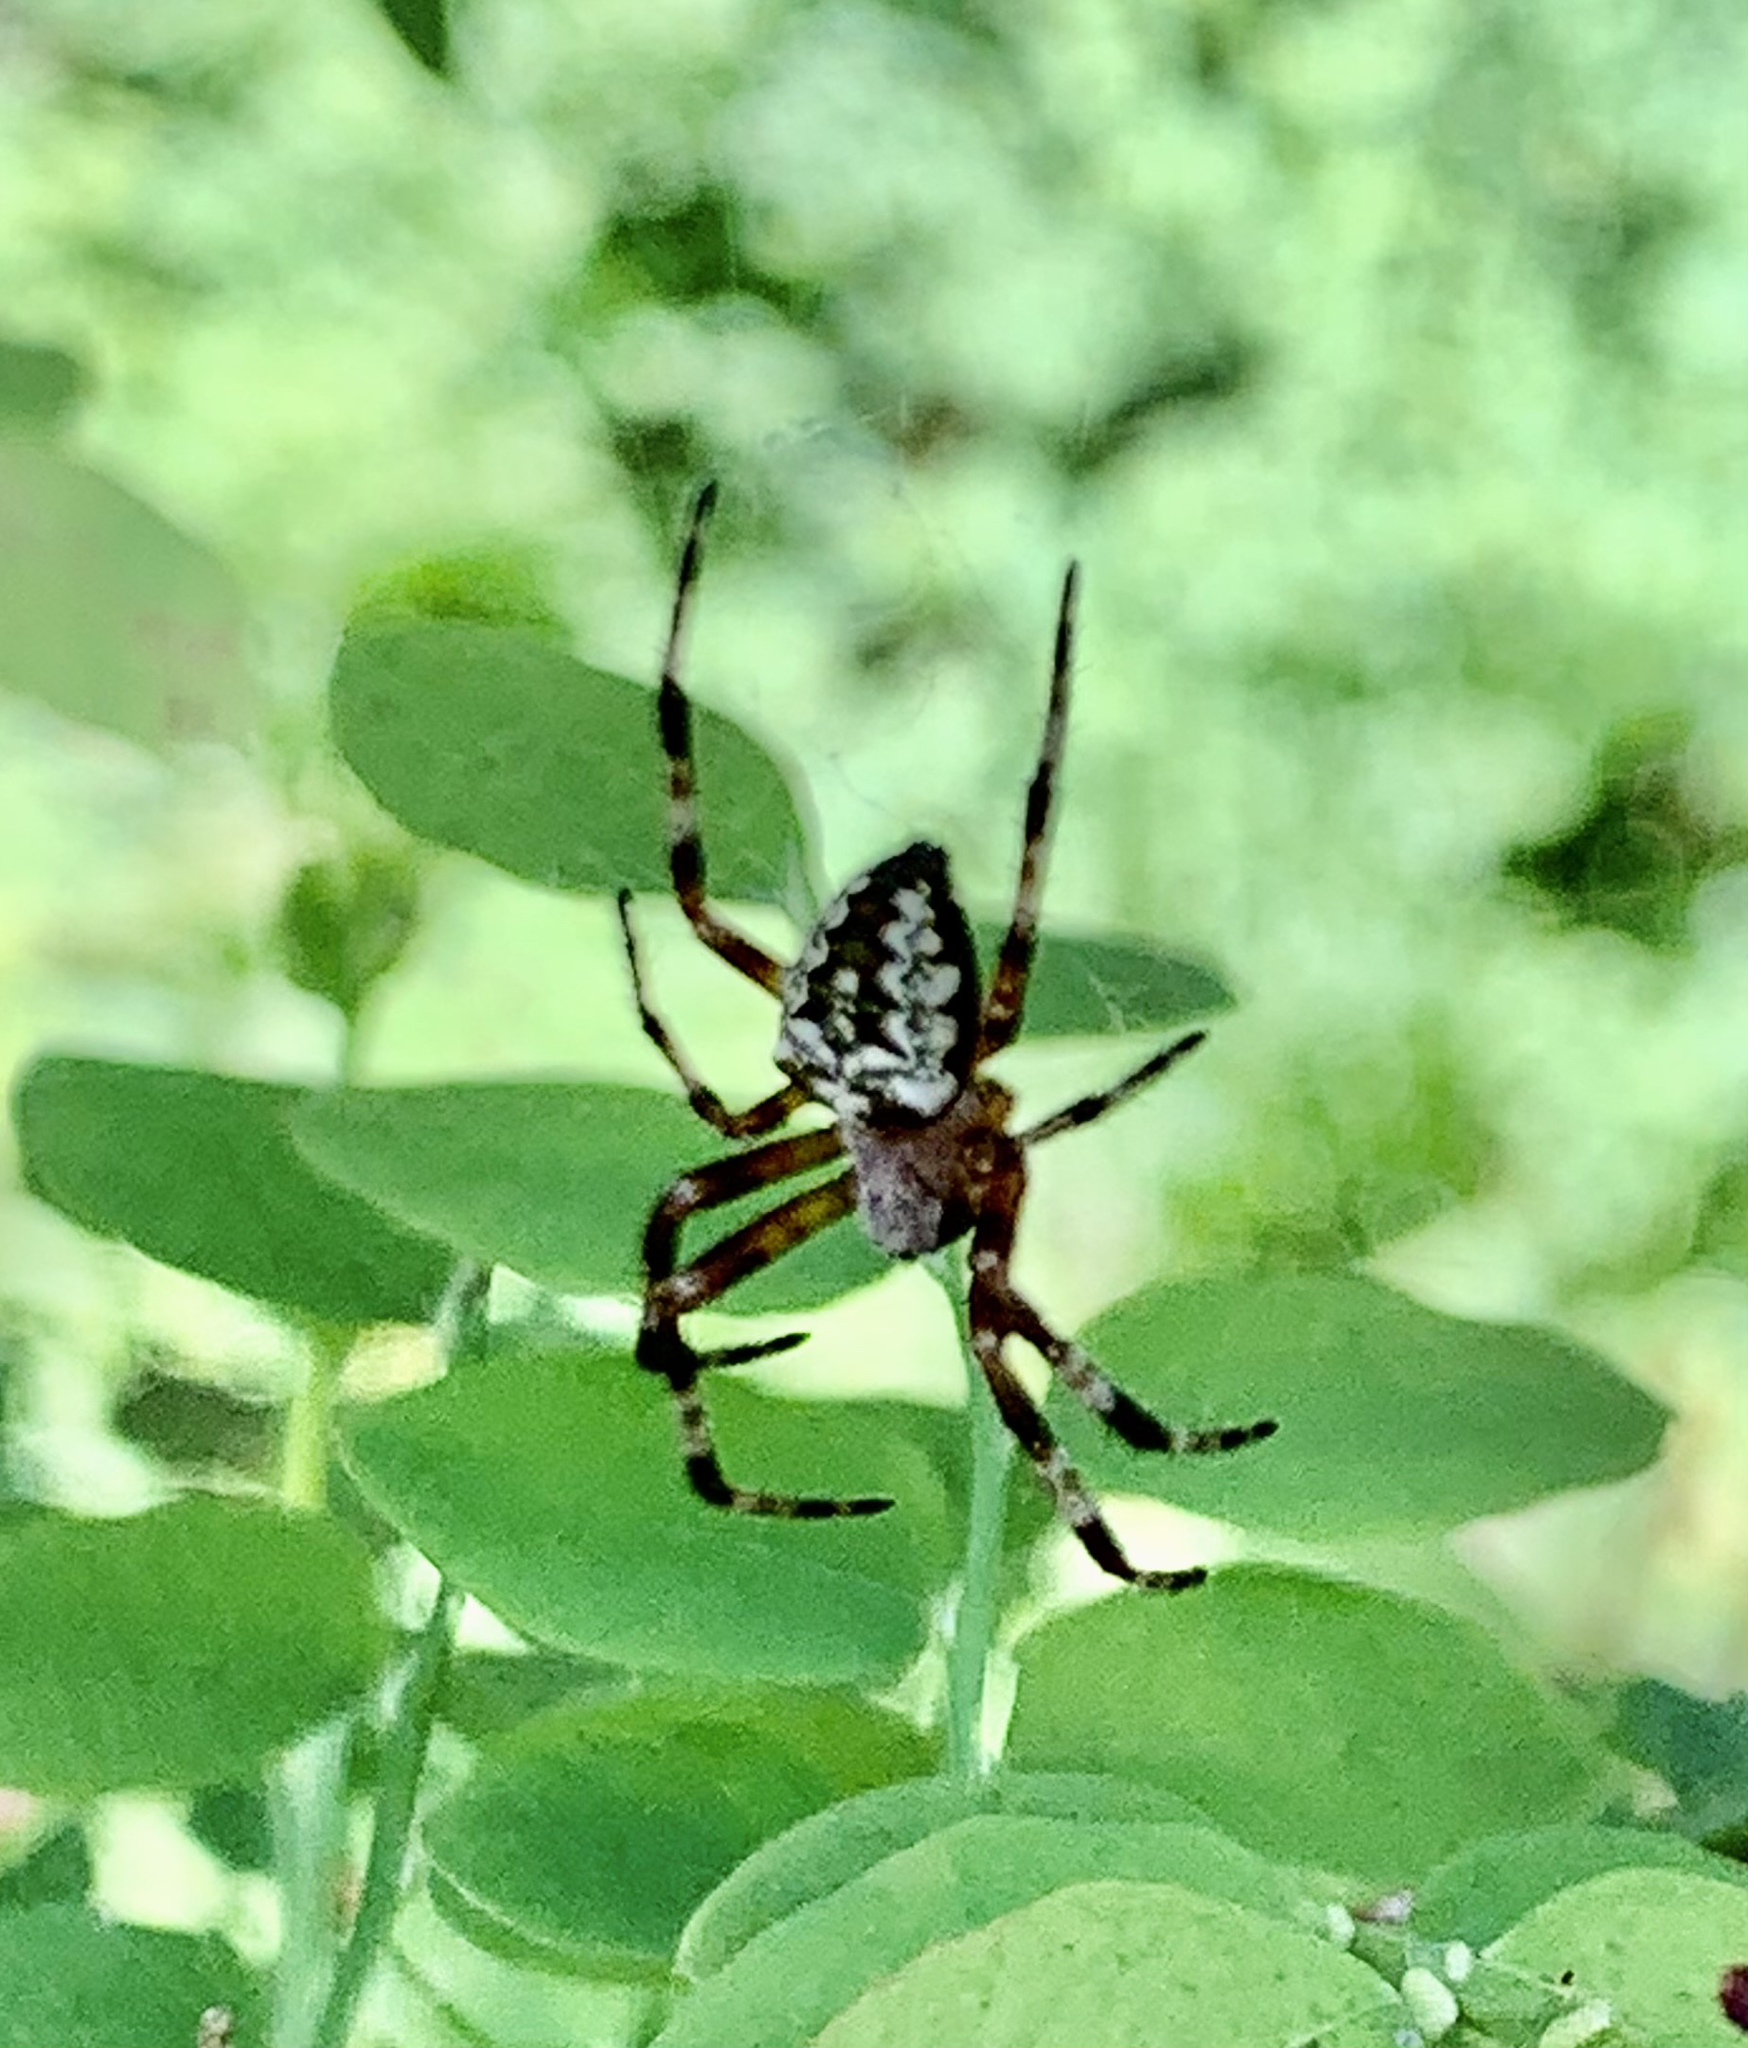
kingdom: Animalia
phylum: Arthropoda
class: Arachnida
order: Araneae
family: Araneidae
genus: Araneus
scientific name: Araneus nordmanni
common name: Nordmann's orbweaver
